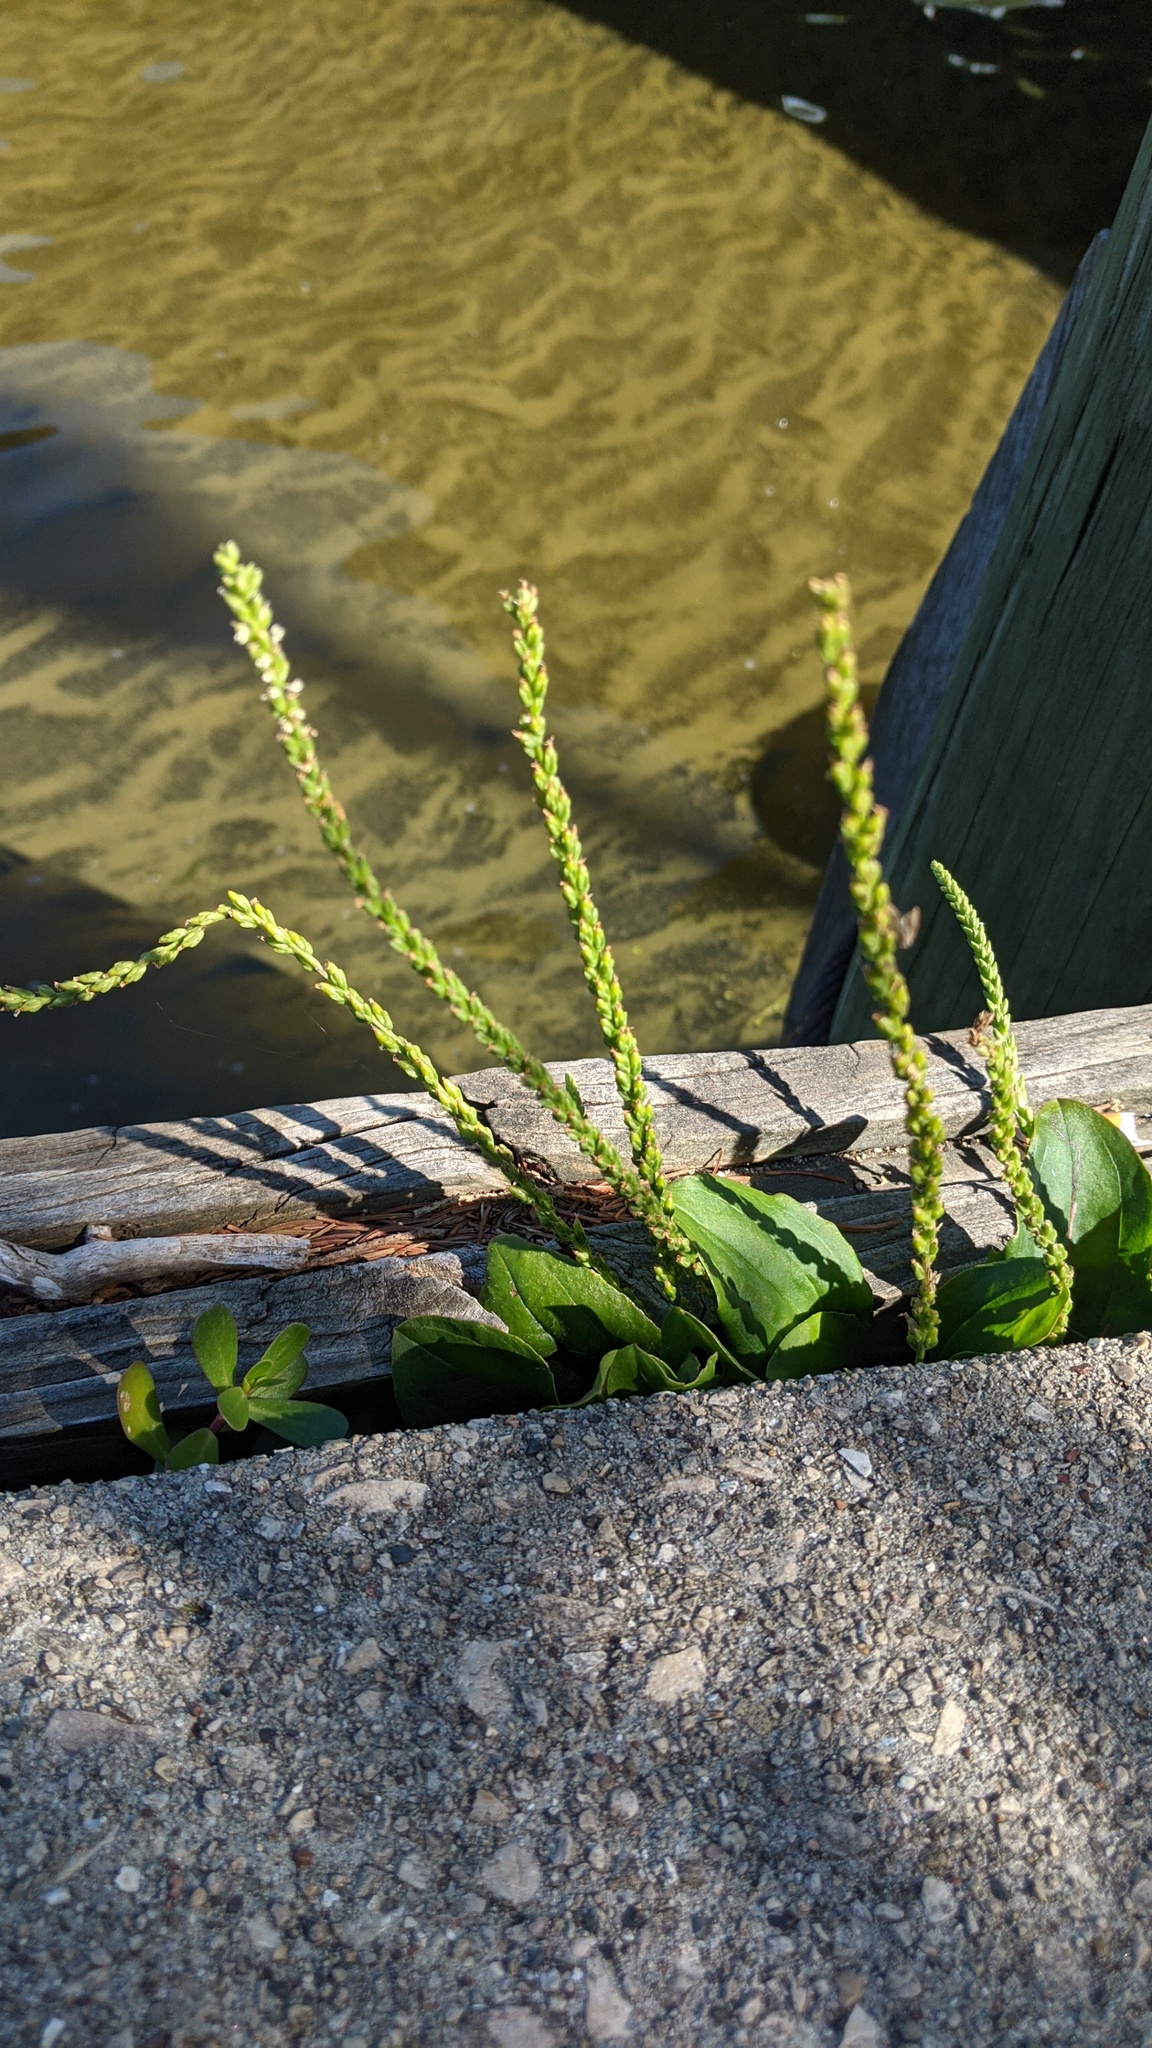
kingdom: Plantae
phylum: Tracheophyta
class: Magnoliopsida
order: Lamiales
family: Plantaginaceae
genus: Plantago
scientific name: Plantago rugelii
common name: American plantain
